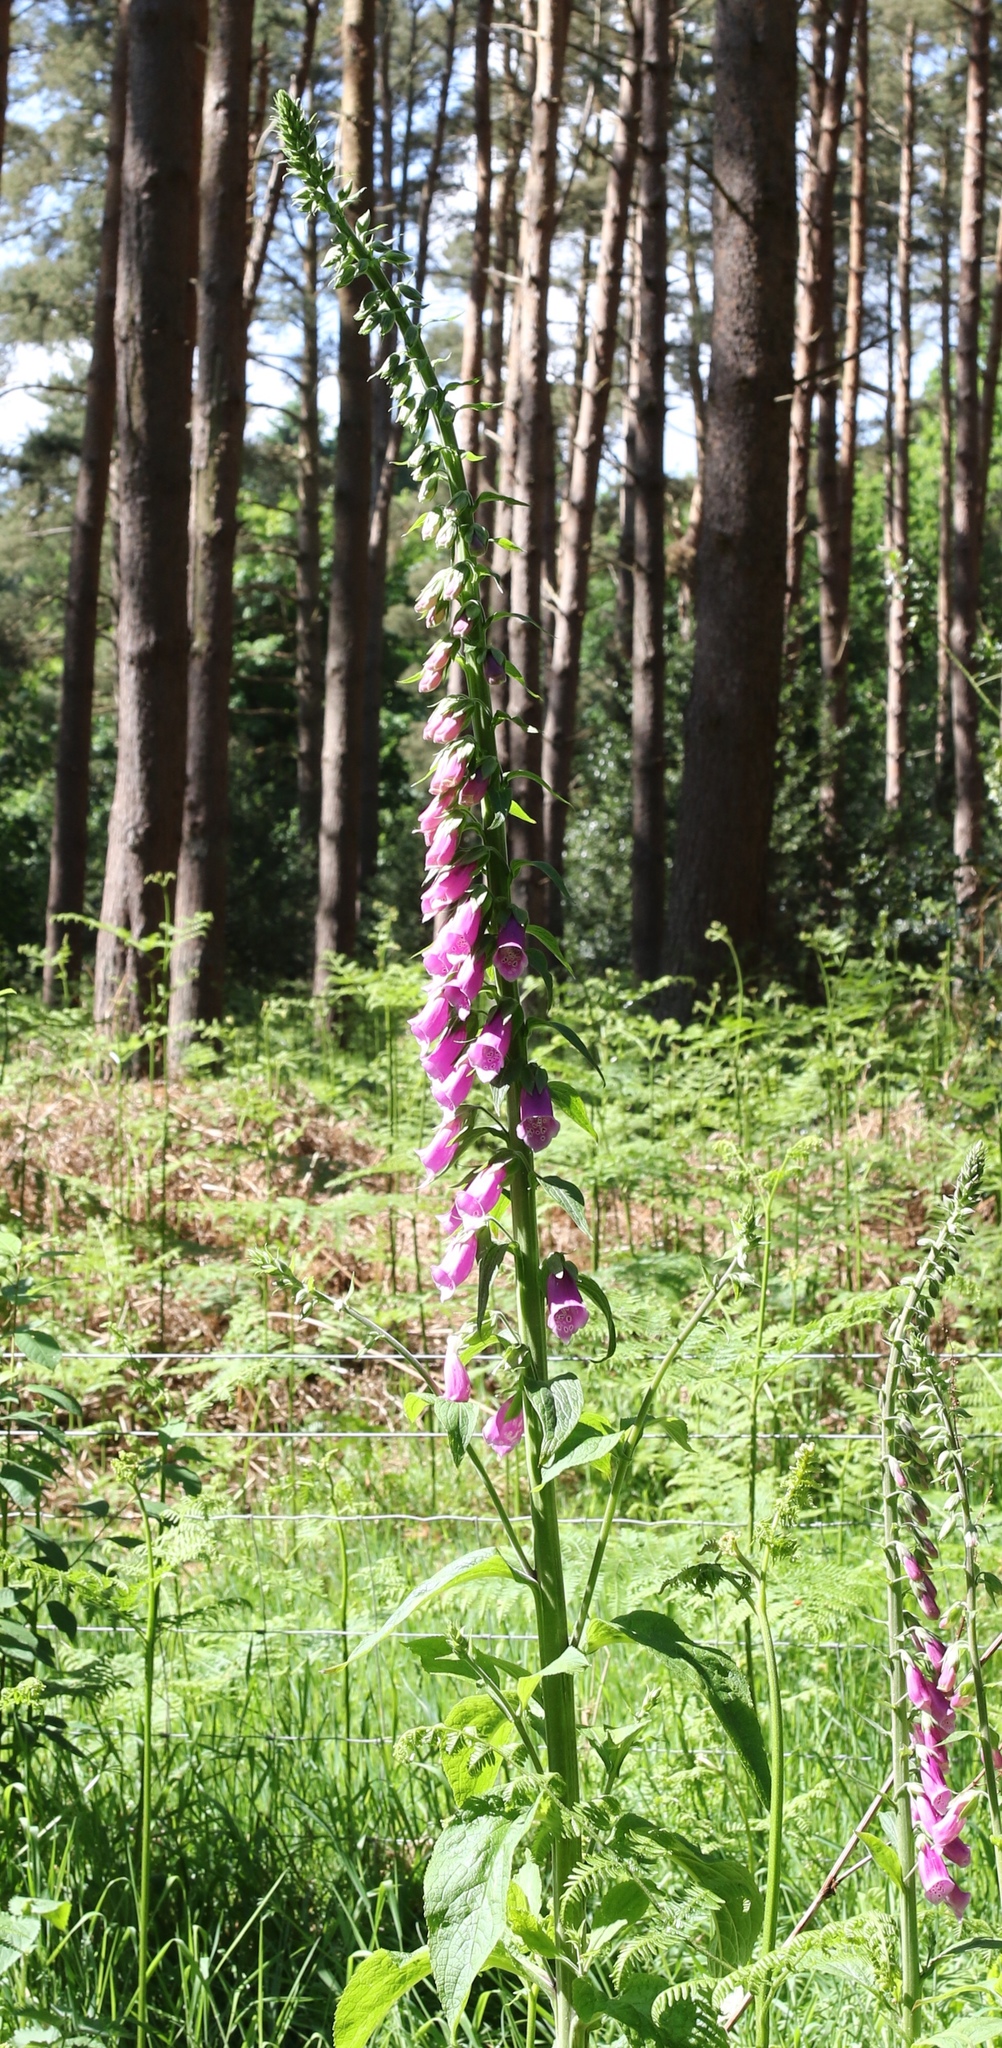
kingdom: Plantae
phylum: Tracheophyta
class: Magnoliopsida
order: Lamiales
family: Plantaginaceae
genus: Digitalis
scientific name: Digitalis purpurea
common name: Foxglove
